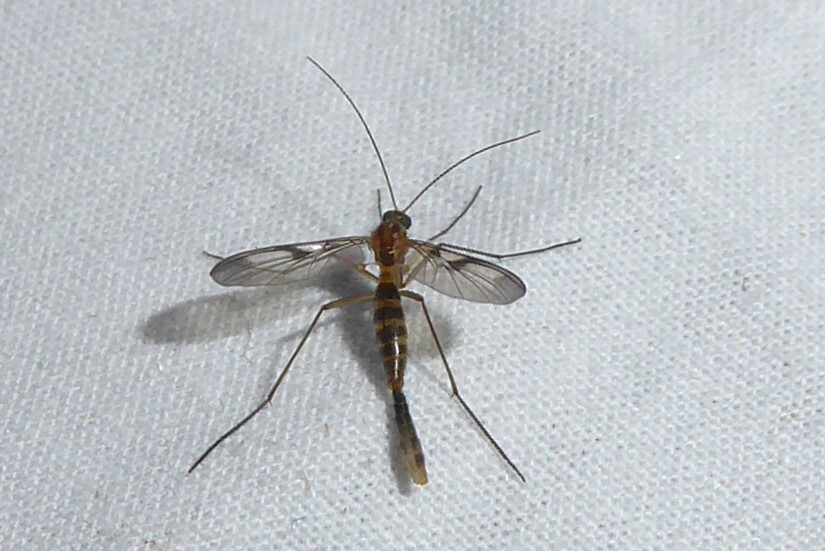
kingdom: Animalia
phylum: Arthropoda
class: Insecta
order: Diptera
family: Keroplatidae
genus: Macrocera
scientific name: Macrocera scoparia
